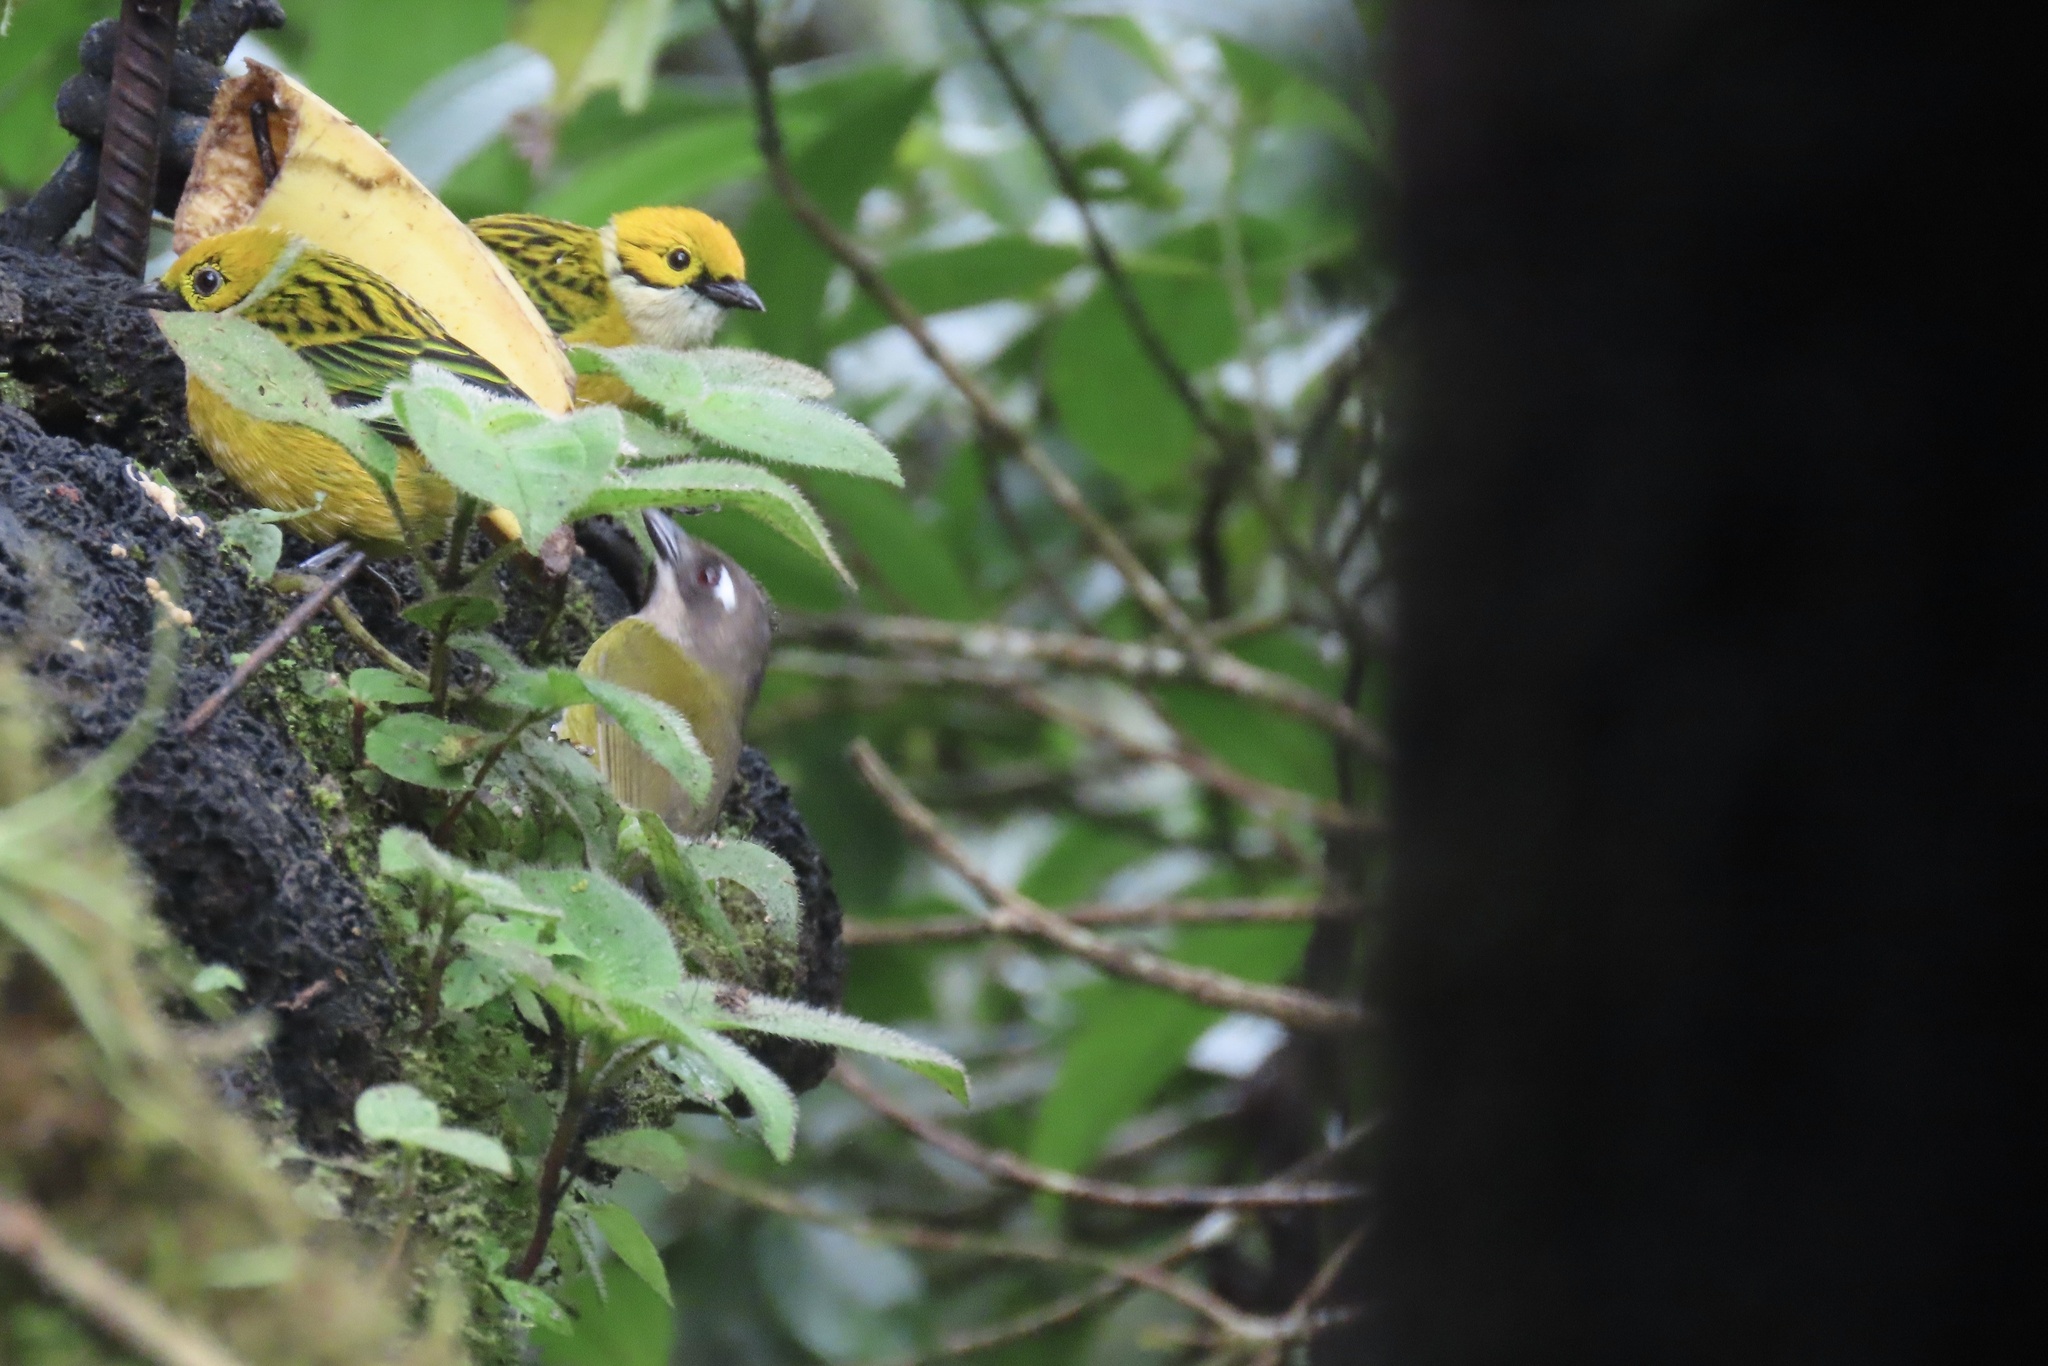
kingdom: Animalia
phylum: Chordata
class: Aves
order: Passeriformes
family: Passerellidae
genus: Chlorospingus
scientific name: Chlorospingus flavopectus
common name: Common chlorospingus
